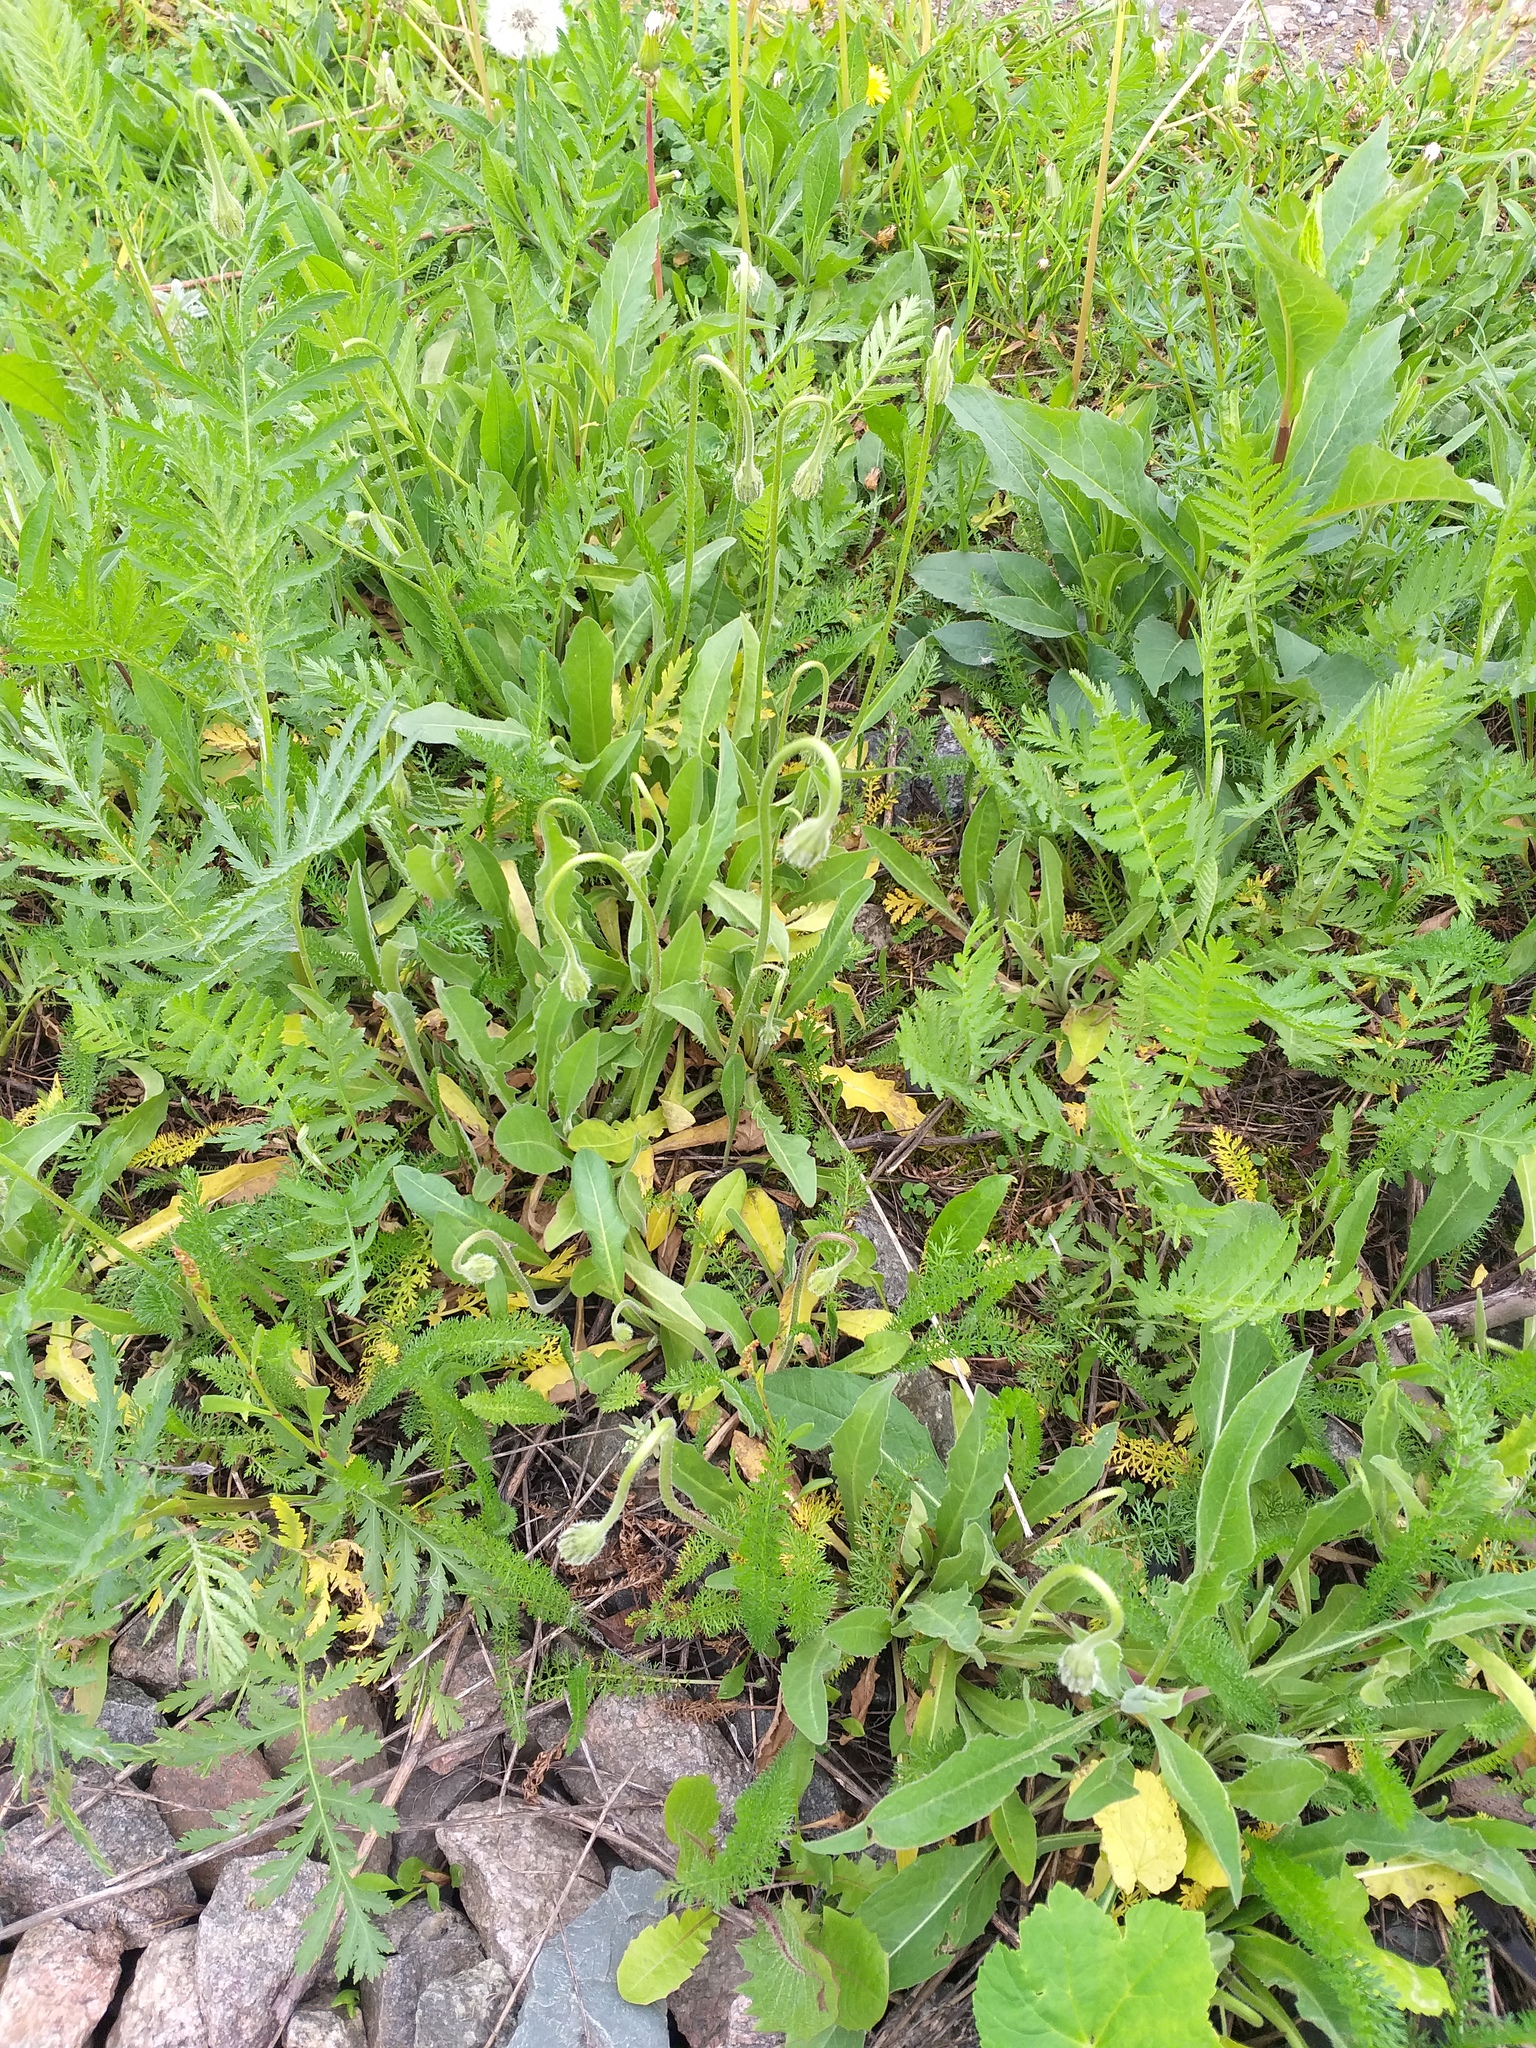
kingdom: Plantae
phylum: Tracheophyta
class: Magnoliopsida
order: Asterales
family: Asteraceae
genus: Leontodon
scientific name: Leontodon hispidus
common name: Rough hawkbit
